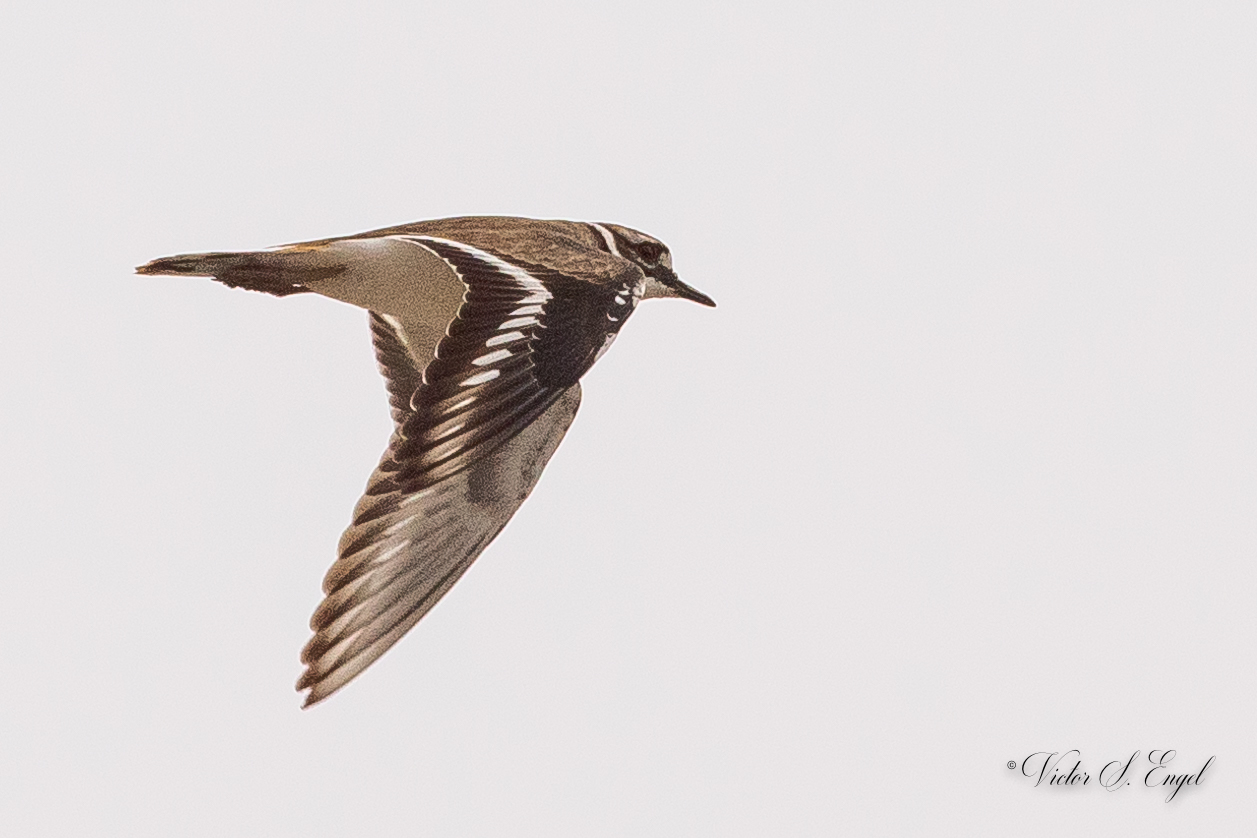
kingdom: Animalia
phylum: Chordata
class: Aves
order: Charadriiformes
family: Charadriidae
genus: Charadrius
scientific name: Charadrius vociferus
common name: Killdeer
